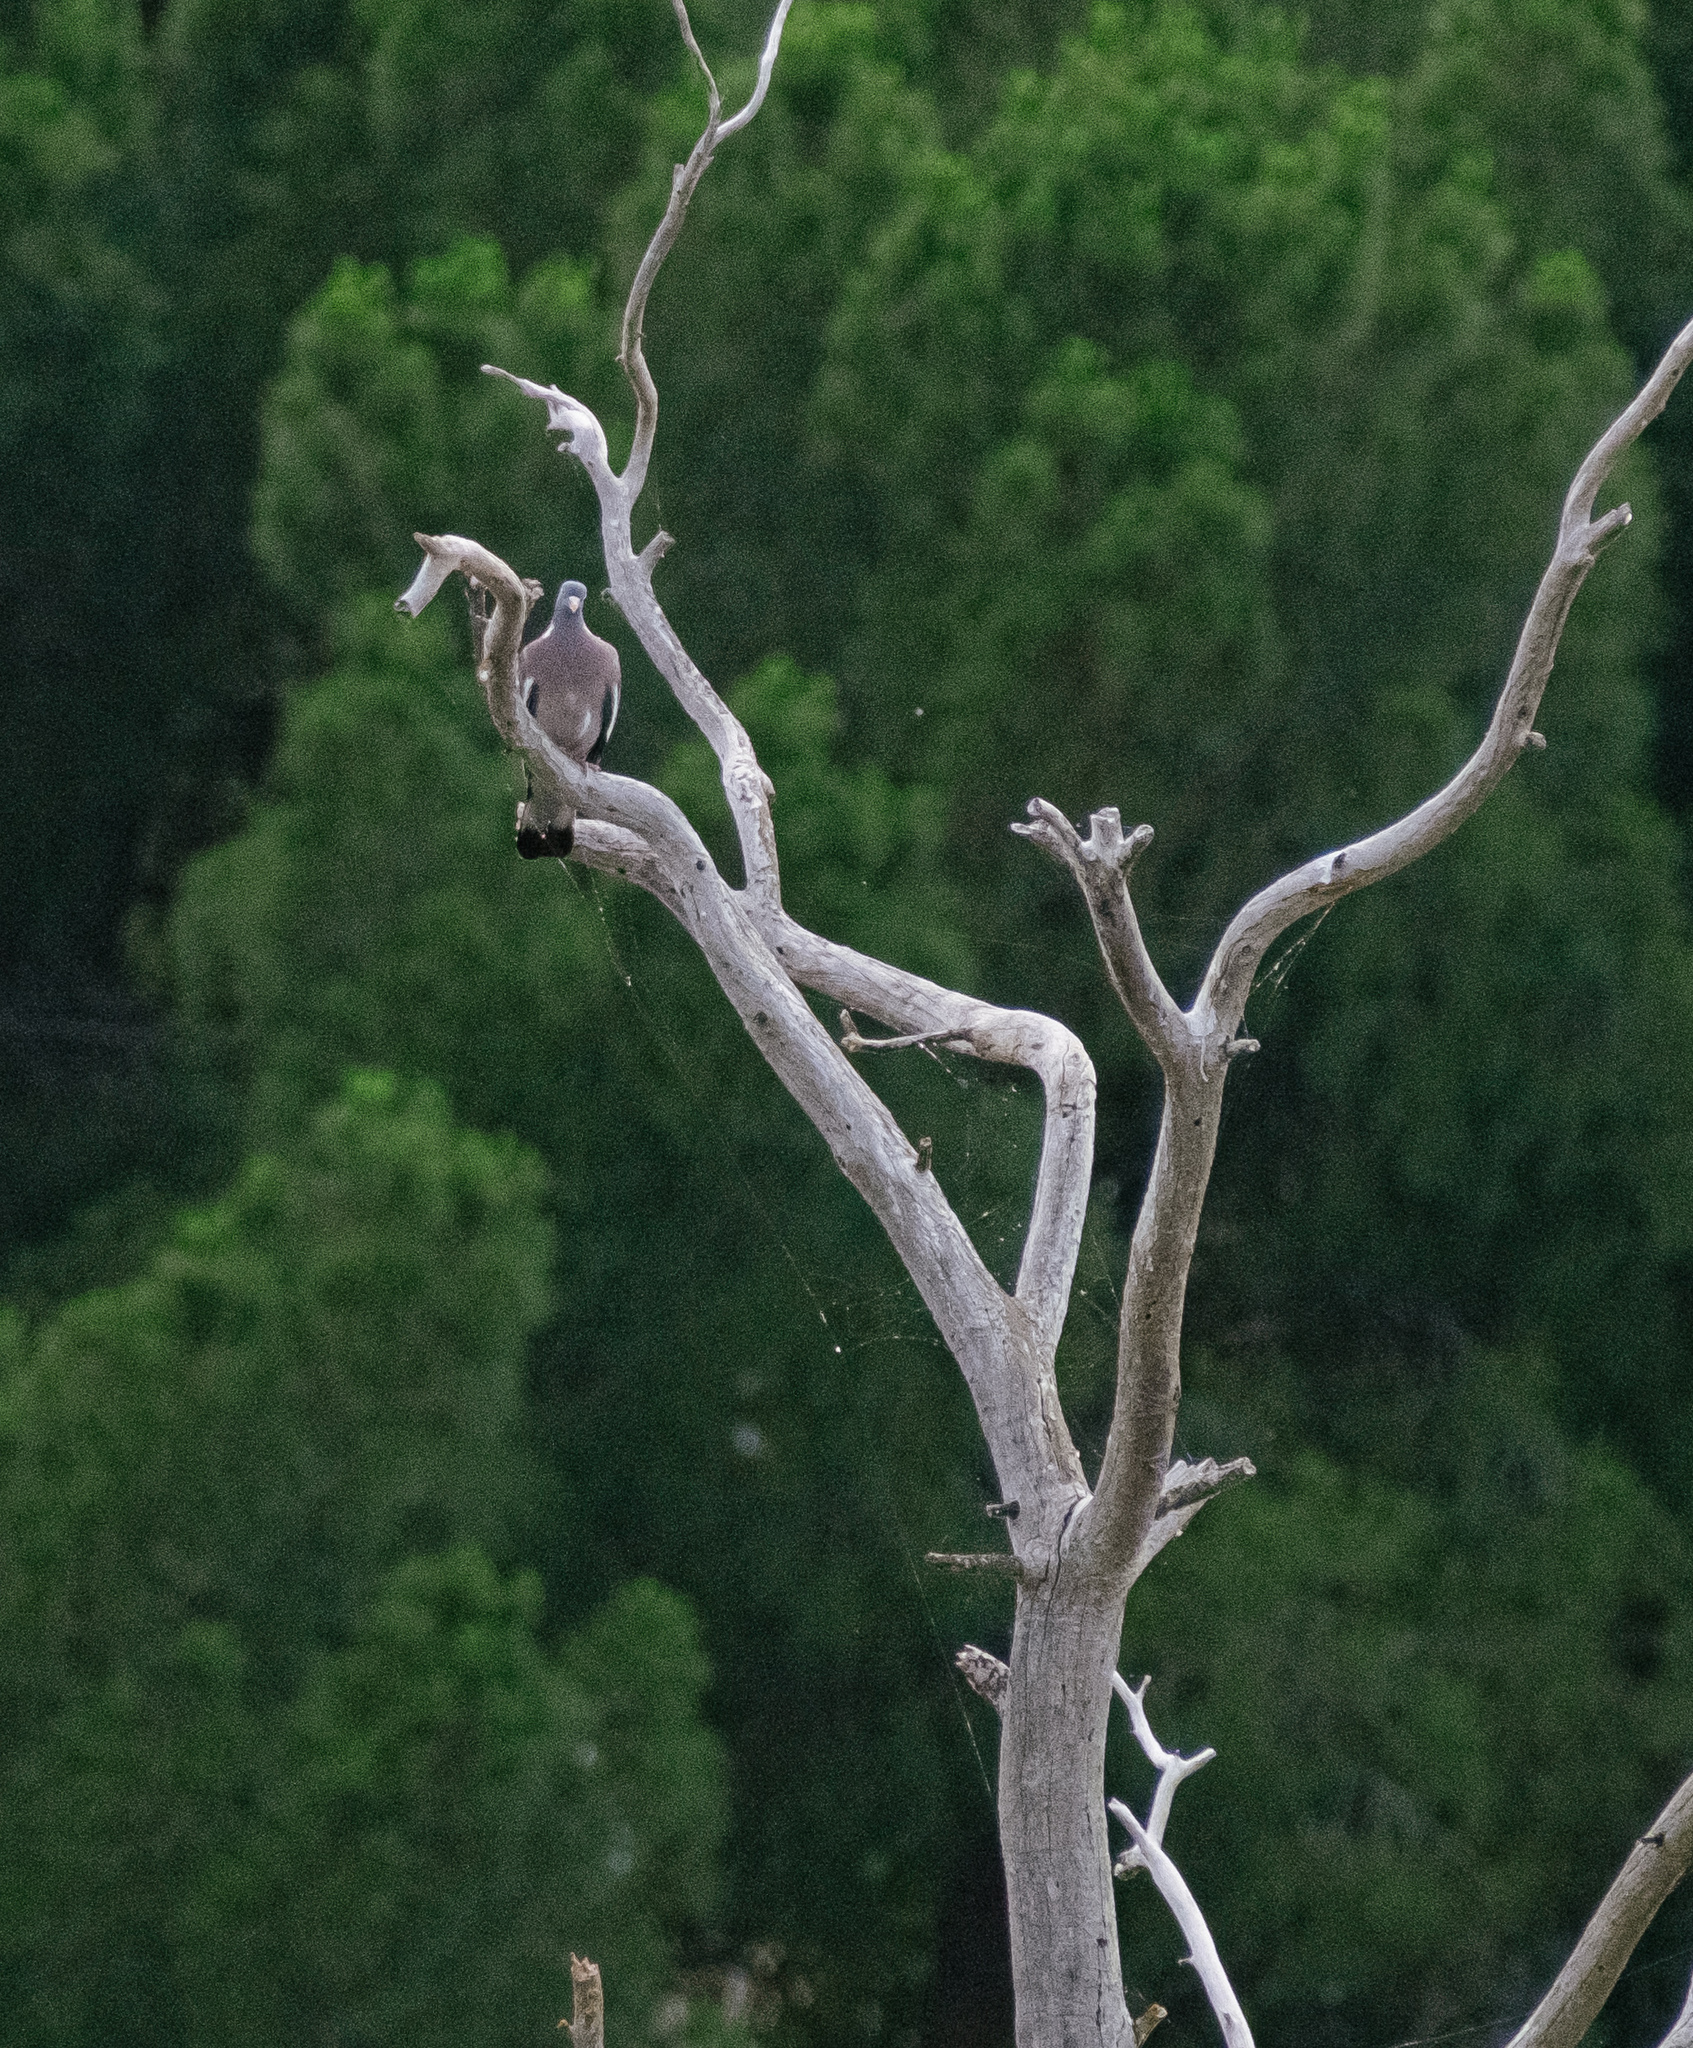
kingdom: Animalia
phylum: Chordata
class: Aves
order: Columbiformes
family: Columbidae
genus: Columba
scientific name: Columba palumbus
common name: Common wood pigeon
